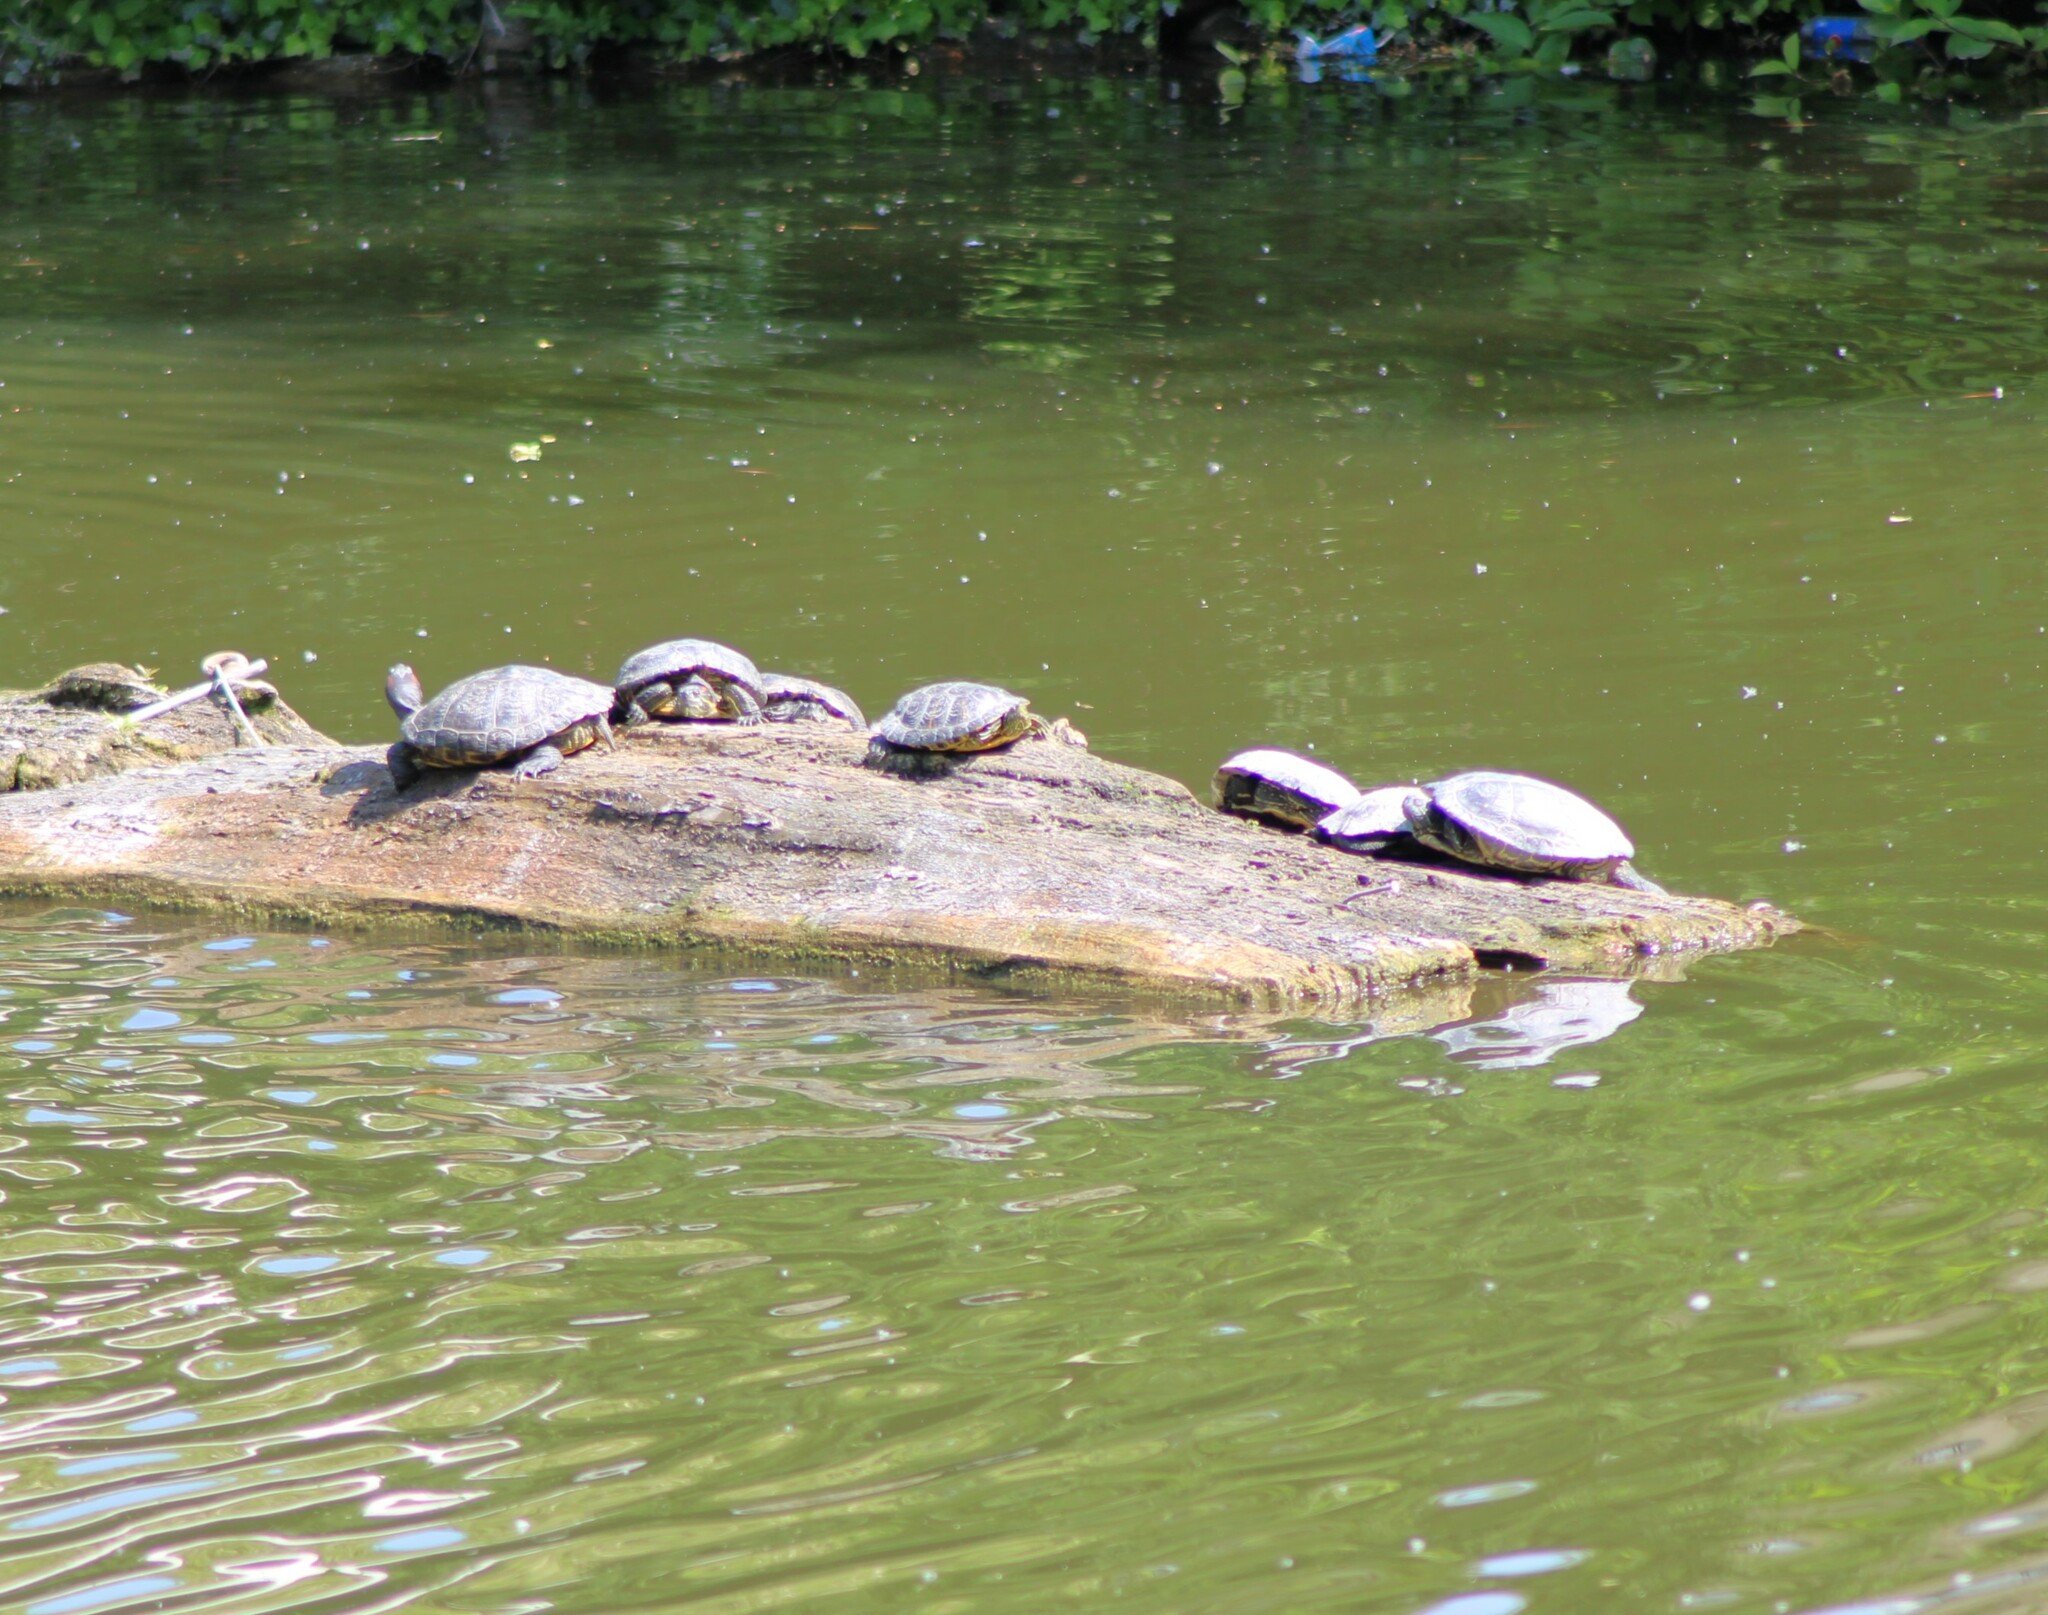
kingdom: Animalia
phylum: Chordata
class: Testudines
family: Emydidae
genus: Trachemys
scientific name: Trachemys scripta
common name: Slider
